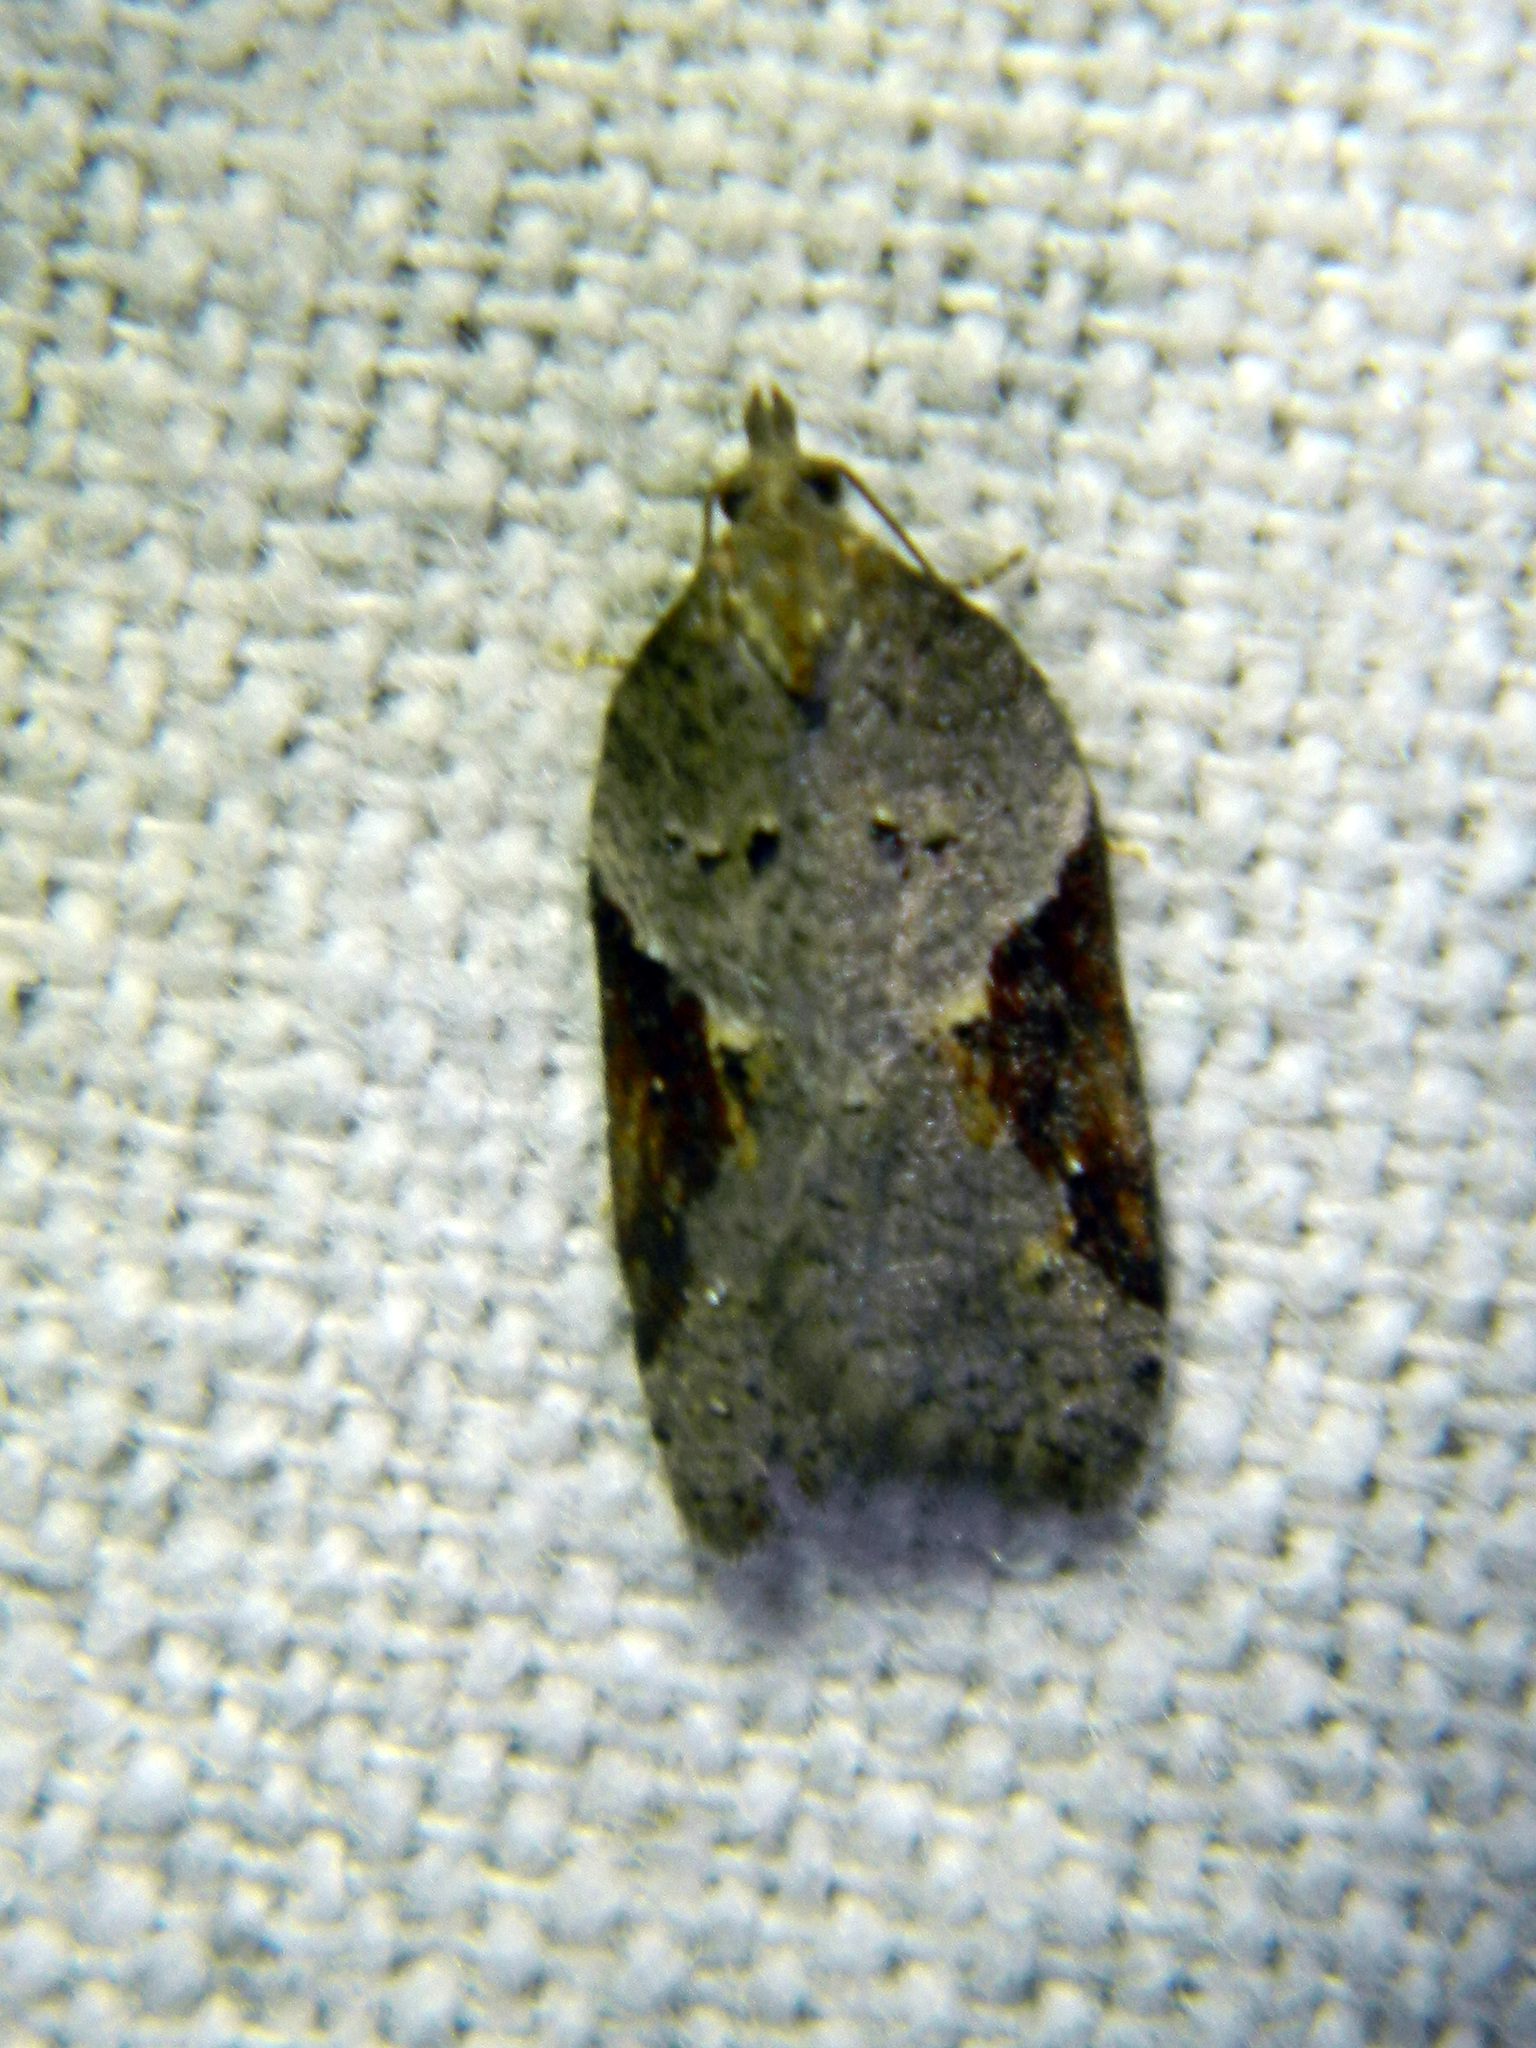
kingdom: Animalia
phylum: Arthropoda
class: Insecta
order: Lepidoptera
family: Tortricidae
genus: Acleris
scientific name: Acleris macdunnoughi
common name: Macdunnough's acleris
